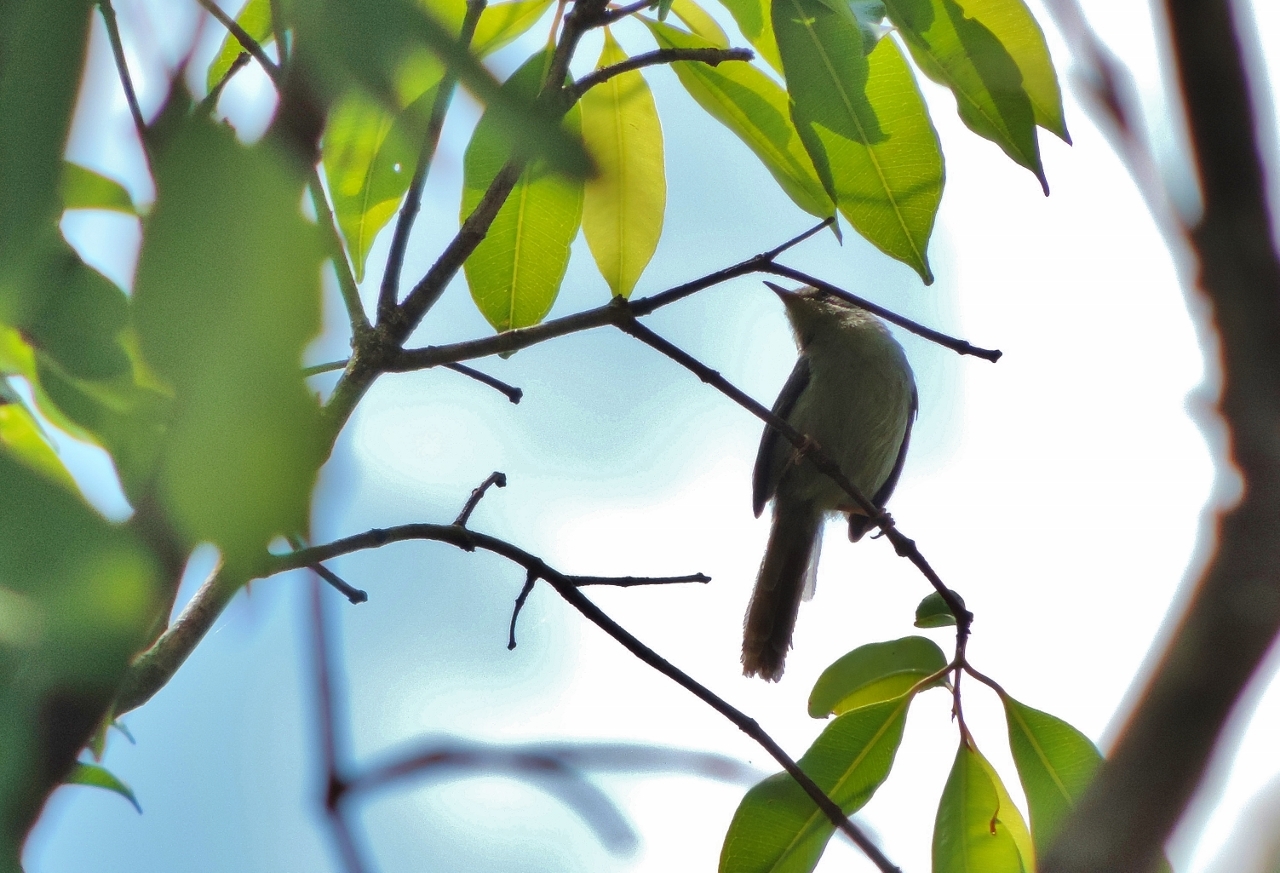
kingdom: Animalia
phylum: Chordata
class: Aves
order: Passeriformes
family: Cisticolidae
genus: Apalis
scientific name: Apalis chirindensis
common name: Chirinda apalis
